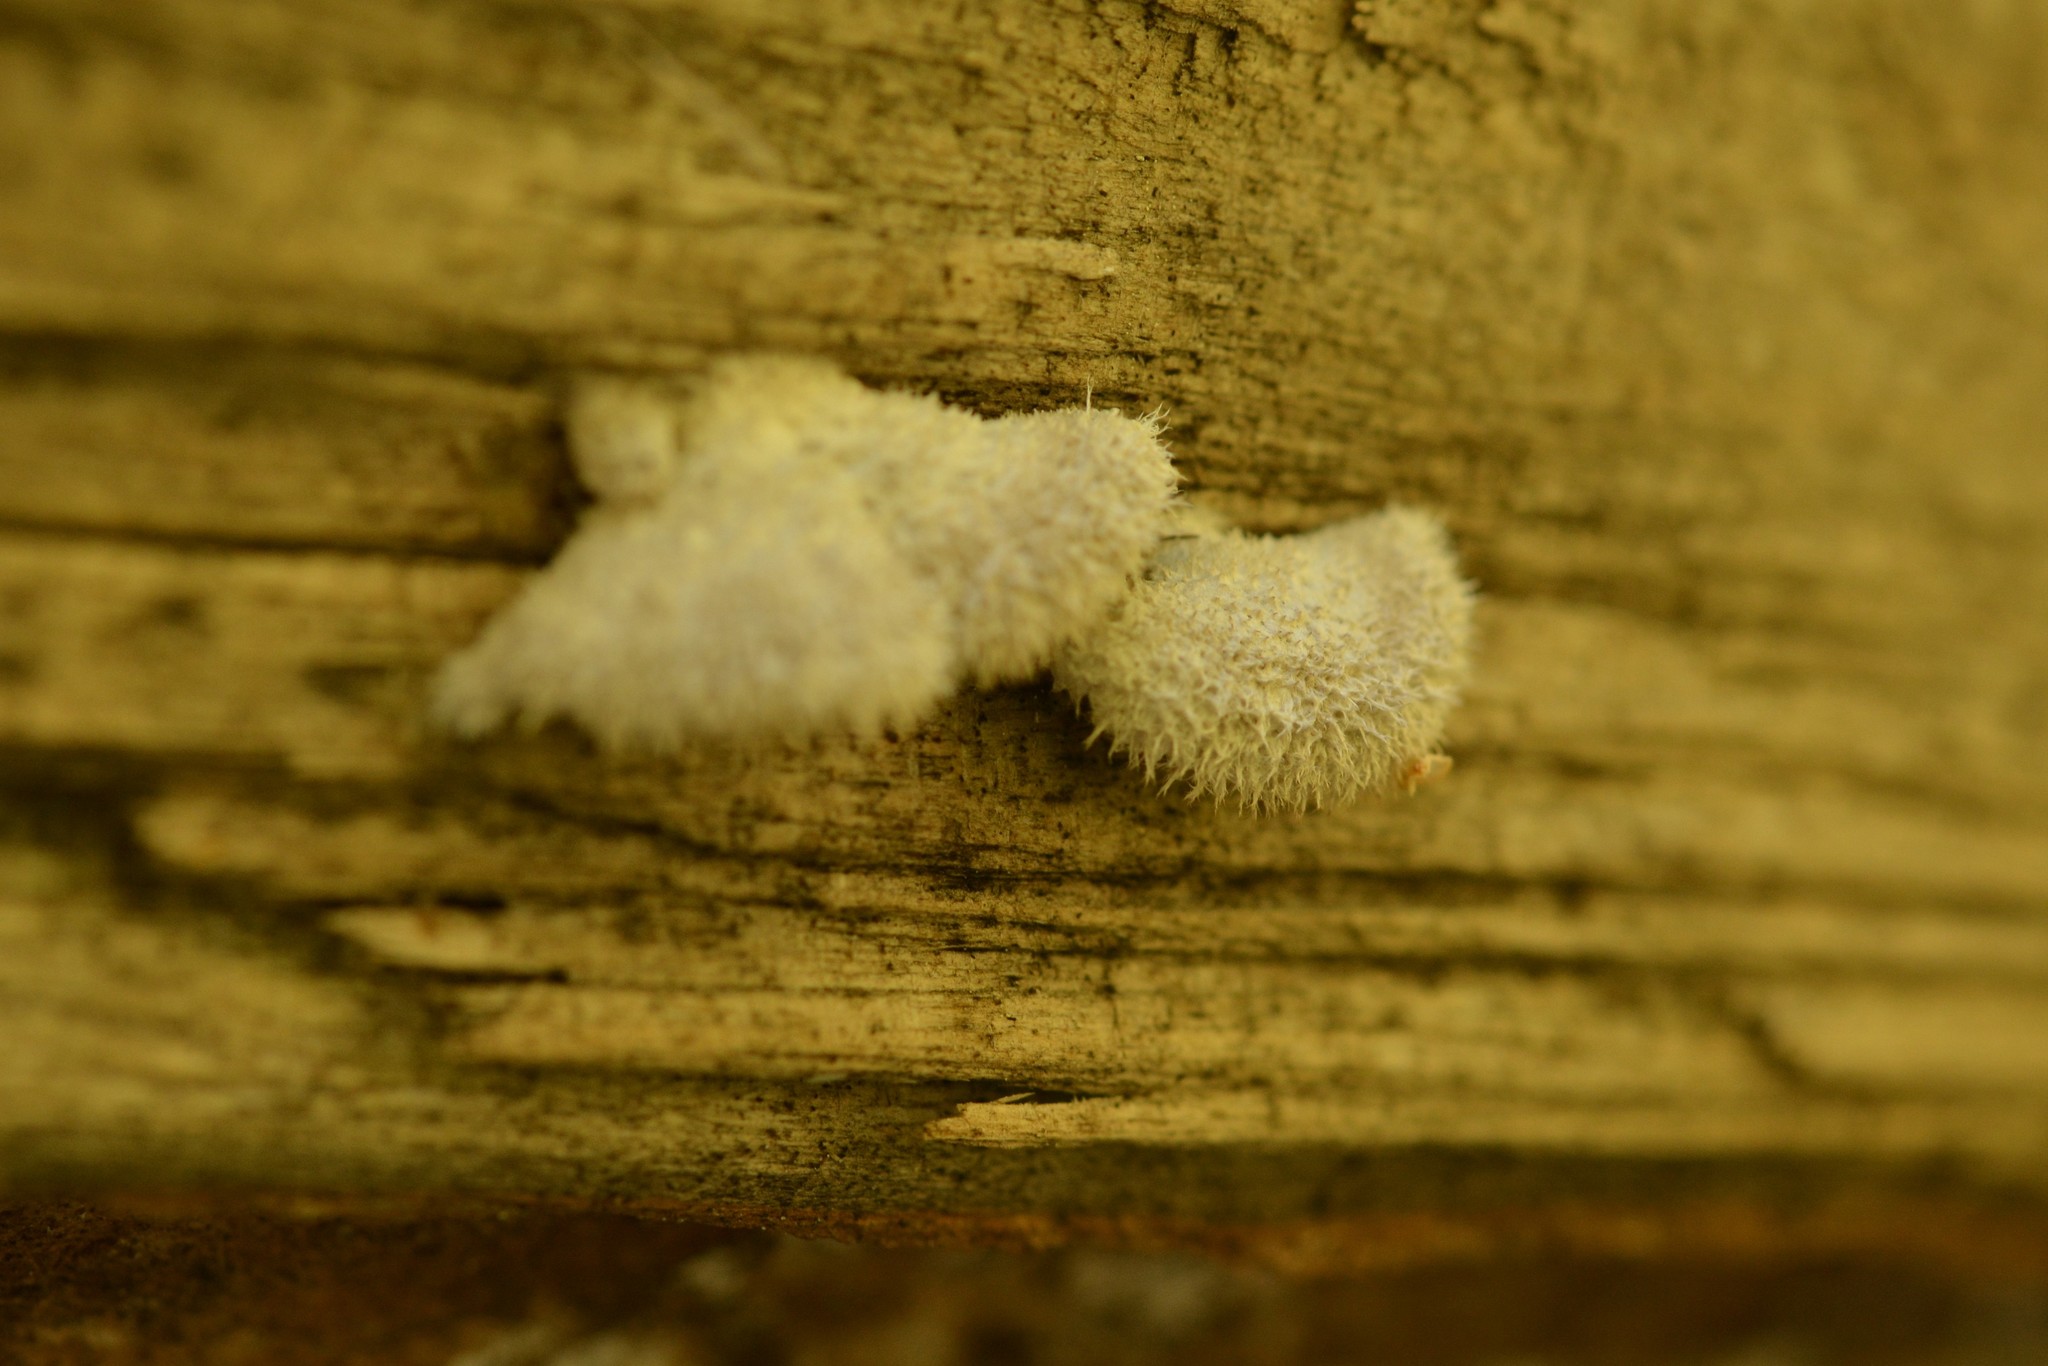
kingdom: Fungi
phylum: Basidiomycota
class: Agaricomycetes
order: Agaricales
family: Schizophyllaceae
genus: Schizophyllum
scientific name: Schizophyllum commune
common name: Common porecrust
